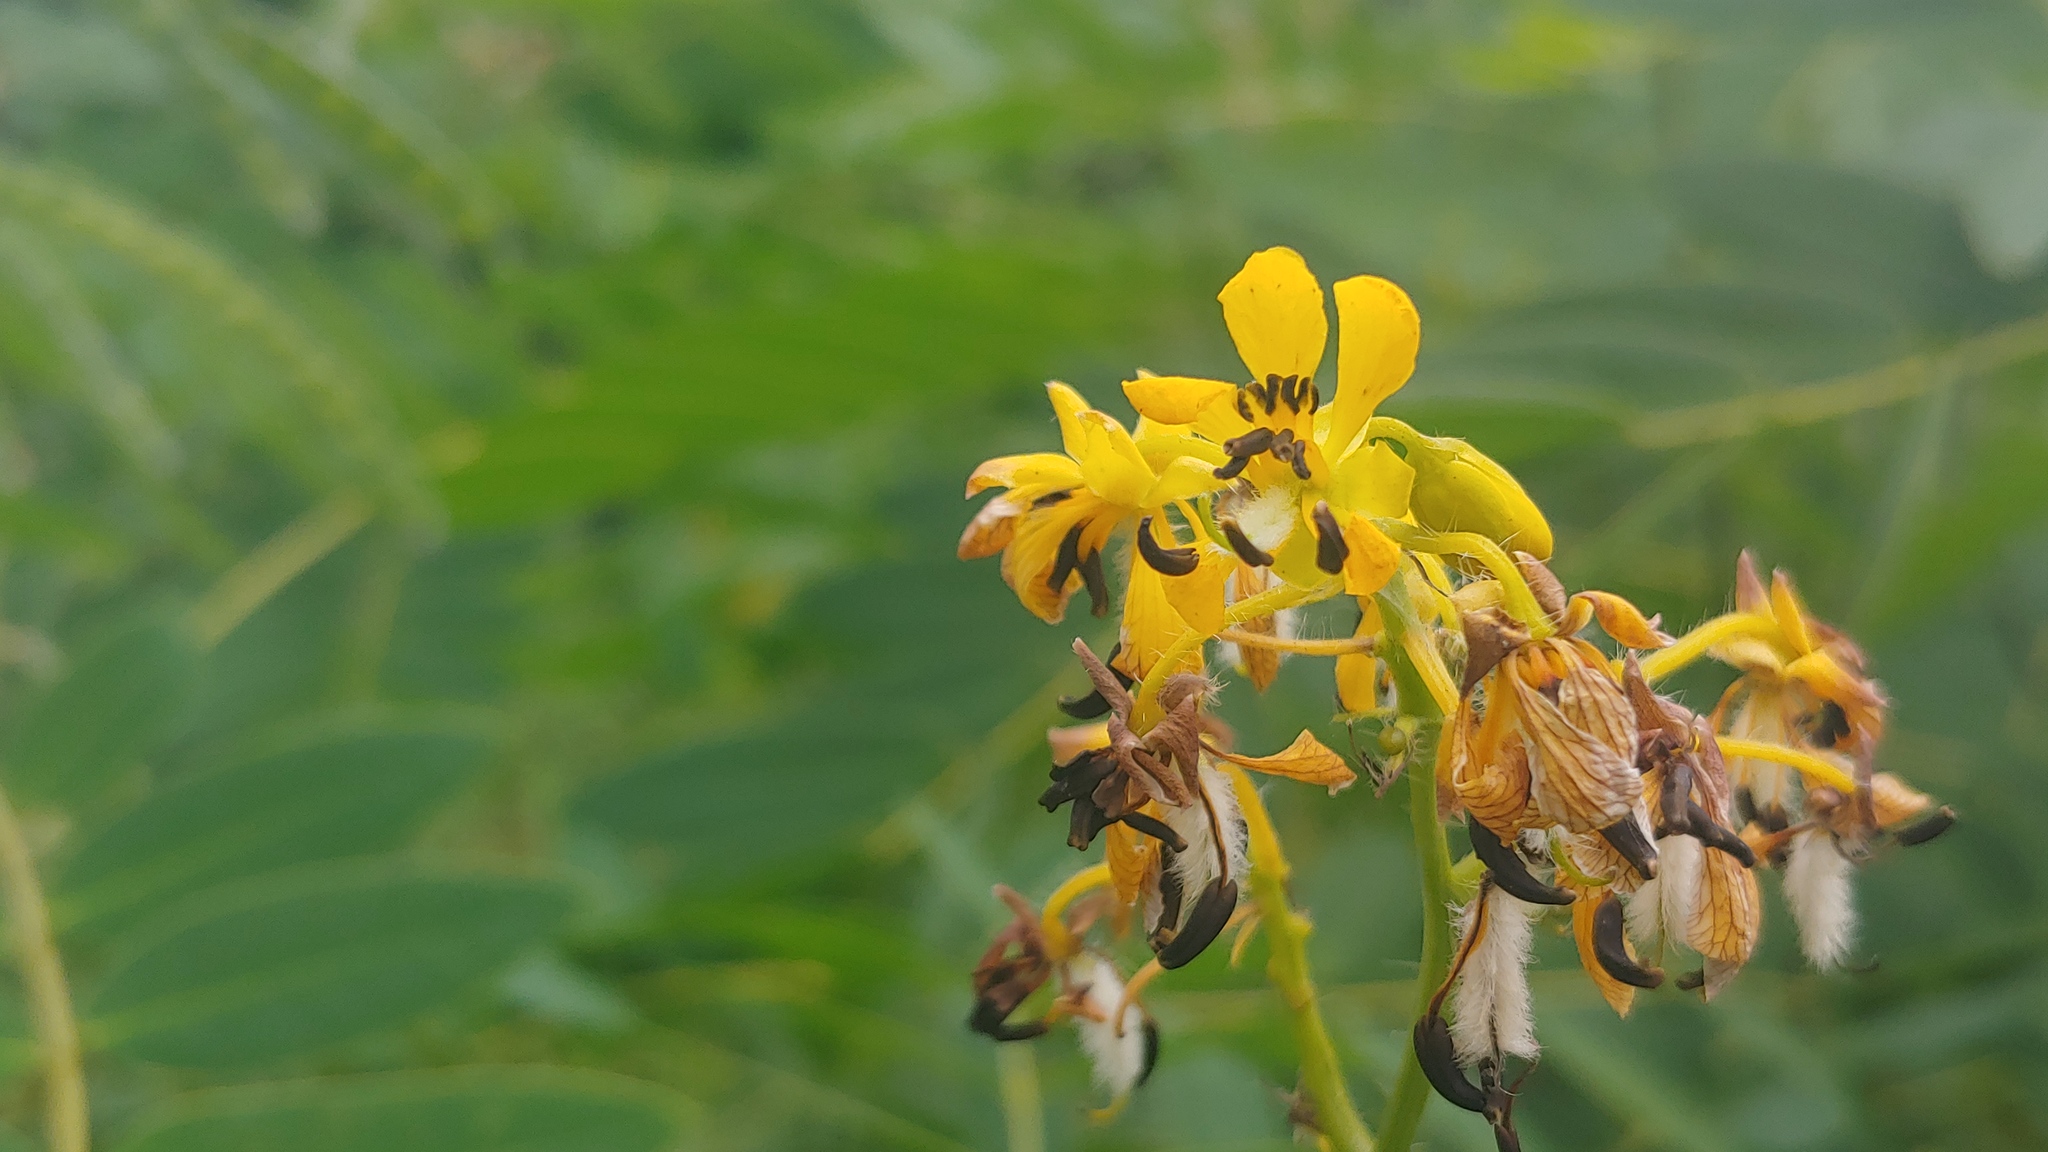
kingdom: Plantae
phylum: Tracheophyta
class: Magnoliopsida
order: Fabales
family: Fabaceae
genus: Senna
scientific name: Senna hebecarpa
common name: Wild senna
